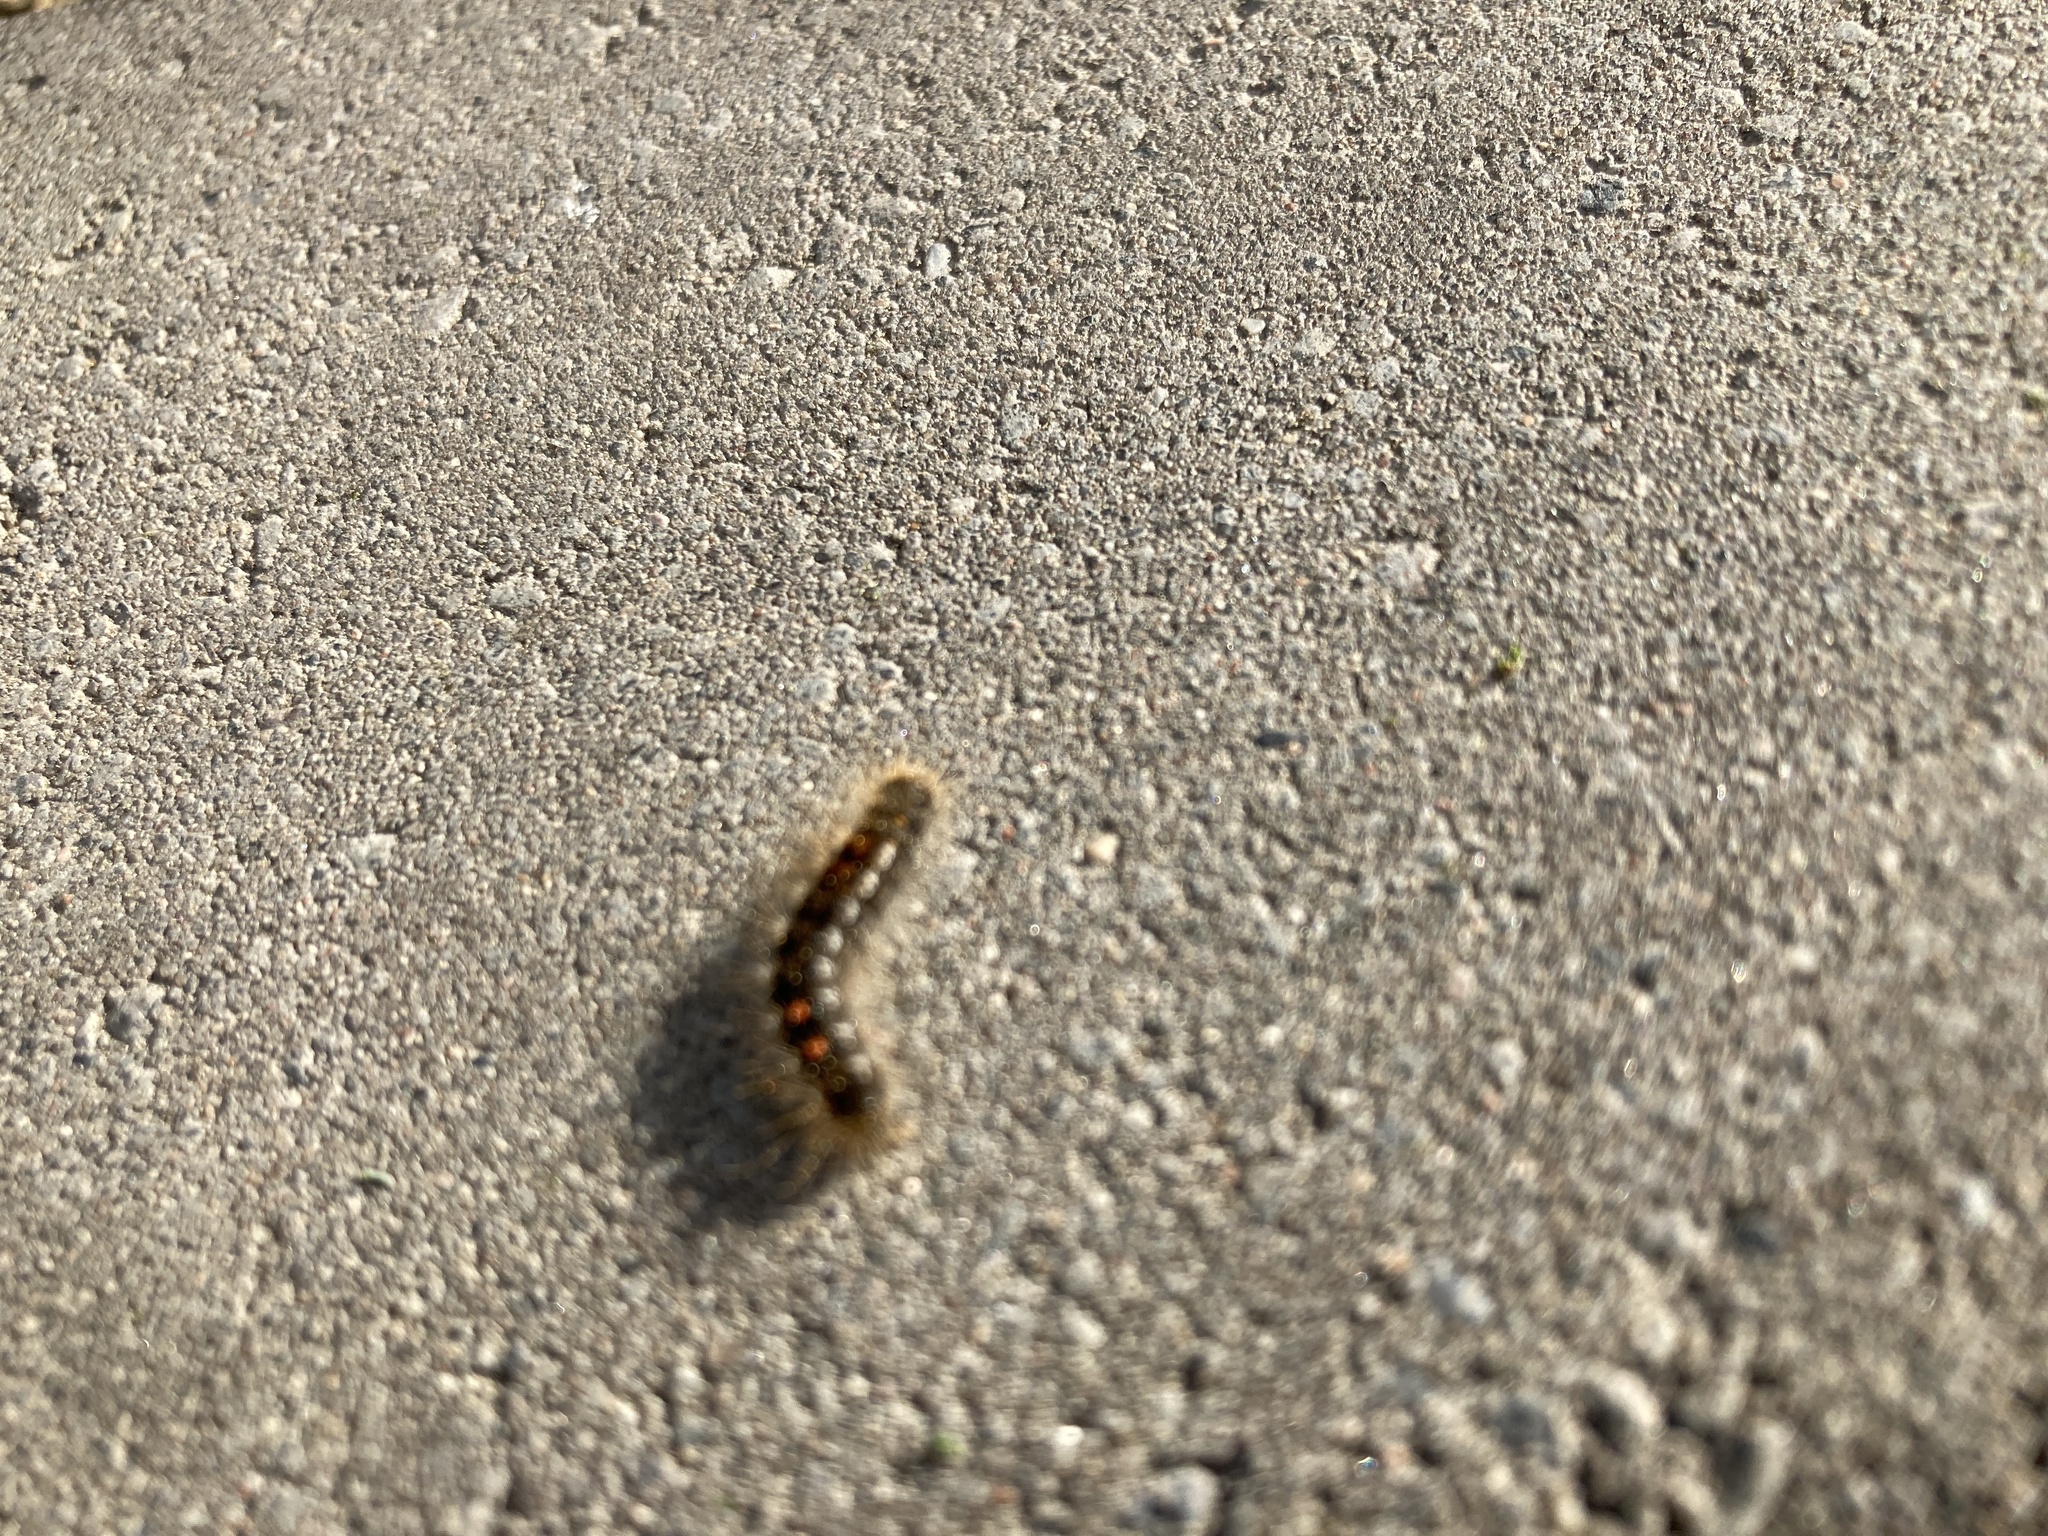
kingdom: Animalia
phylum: Arthropoda
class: Insecta
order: Lepidoptera
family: Erebidae
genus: Euproctis
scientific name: Euproctis chrysorrhoea
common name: Brown-tail
